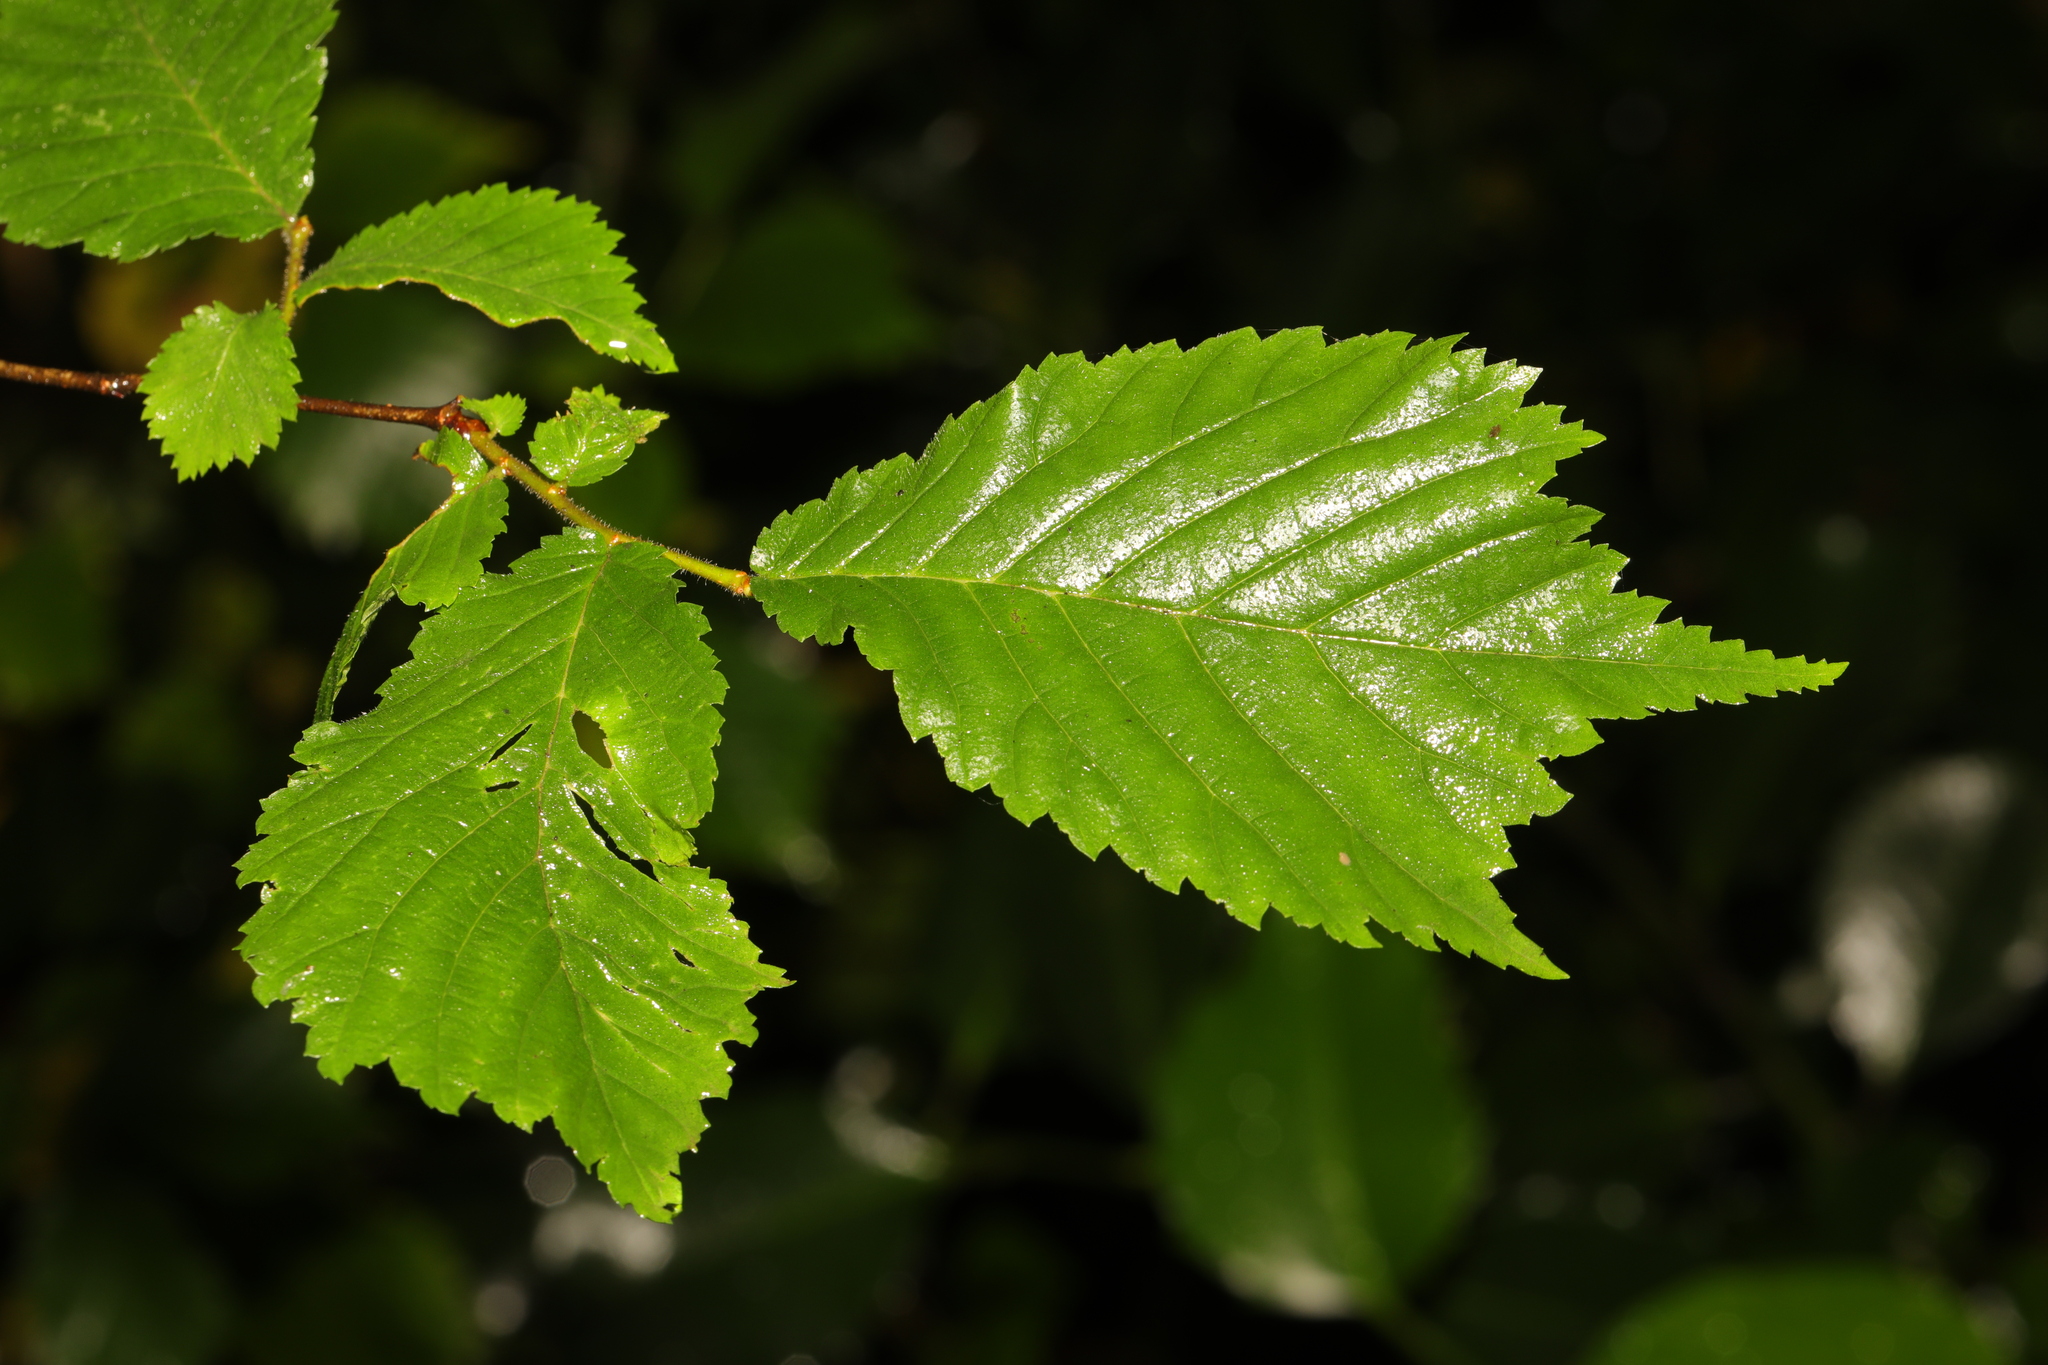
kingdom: Plantae
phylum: Tracheophyta
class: Magnoliopsida
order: Rosales
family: Ulmaceae
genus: Ulmus
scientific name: Ulmus glabra
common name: Wych elm
